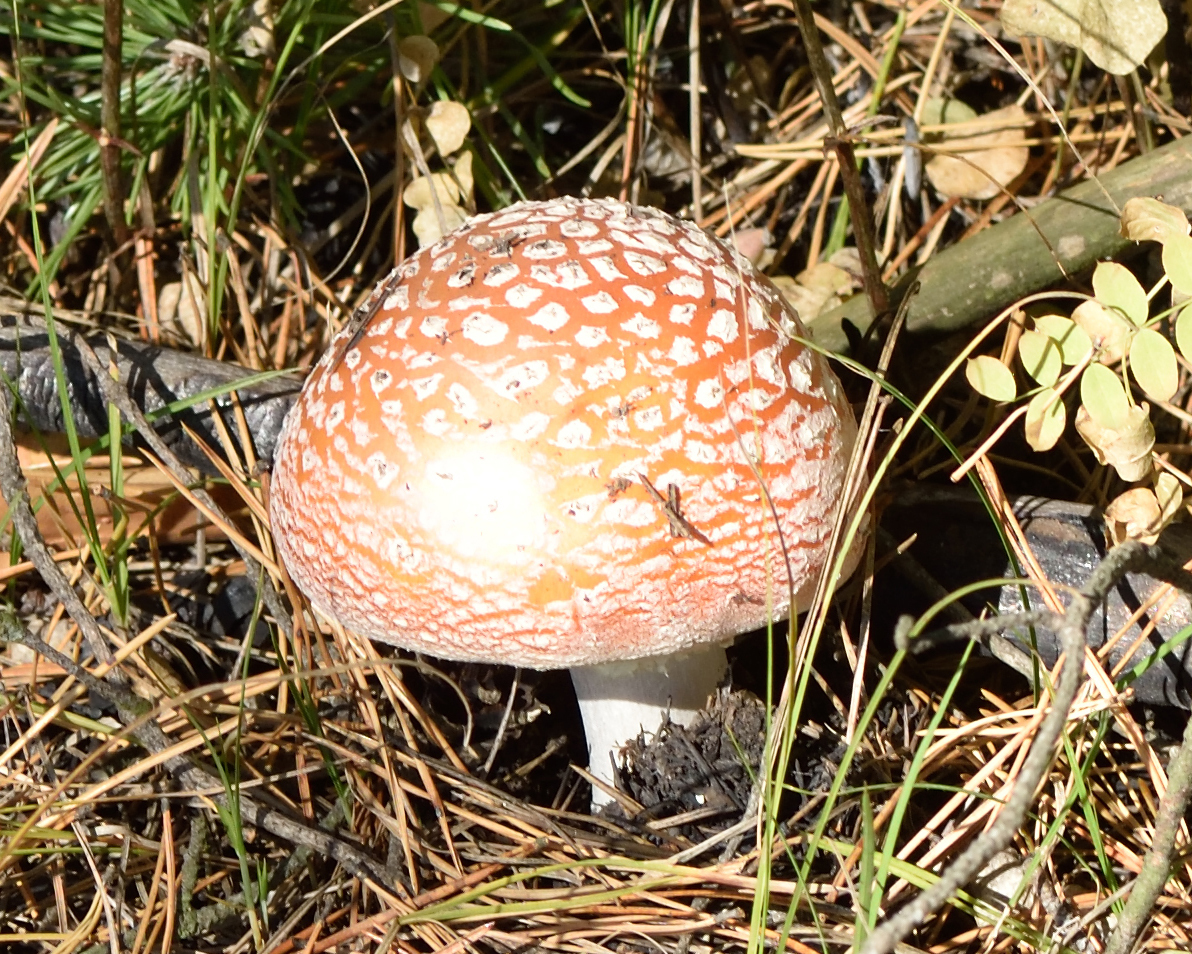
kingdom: Fungi
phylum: Basidiomycota
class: Agaricomycetes
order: Agaricales
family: Amanitaceae
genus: Amanita
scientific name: Amanita muscaria
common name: Fly agaric
